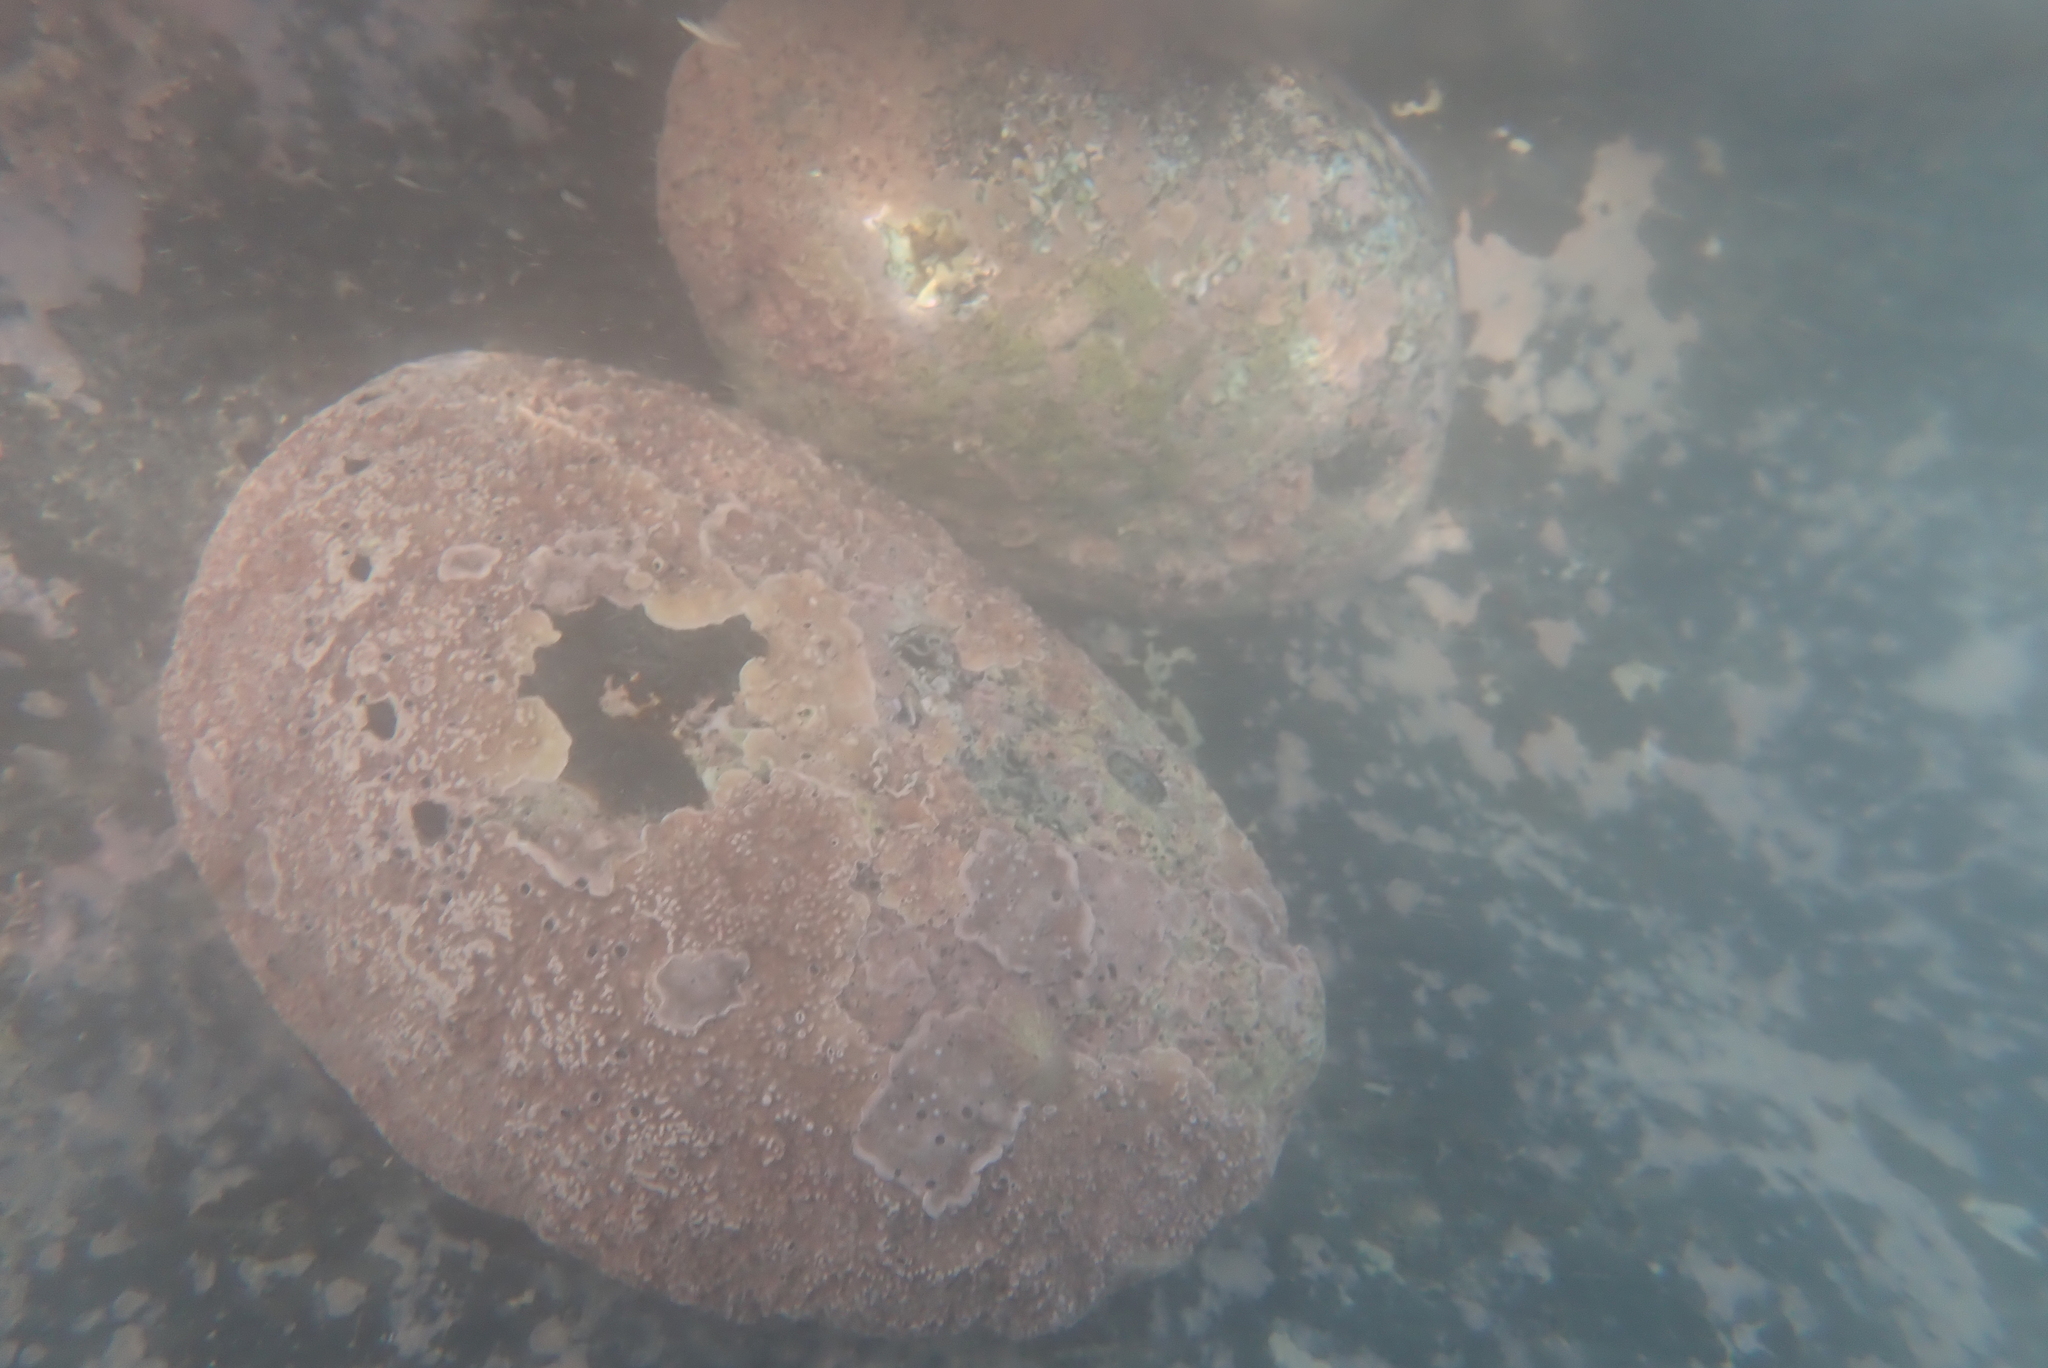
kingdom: Animalia
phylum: Mollusca
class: Gastropoda
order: Lepetellida
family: Haliotidae
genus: Haliotis
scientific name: Haliotis iris
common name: Abalone
